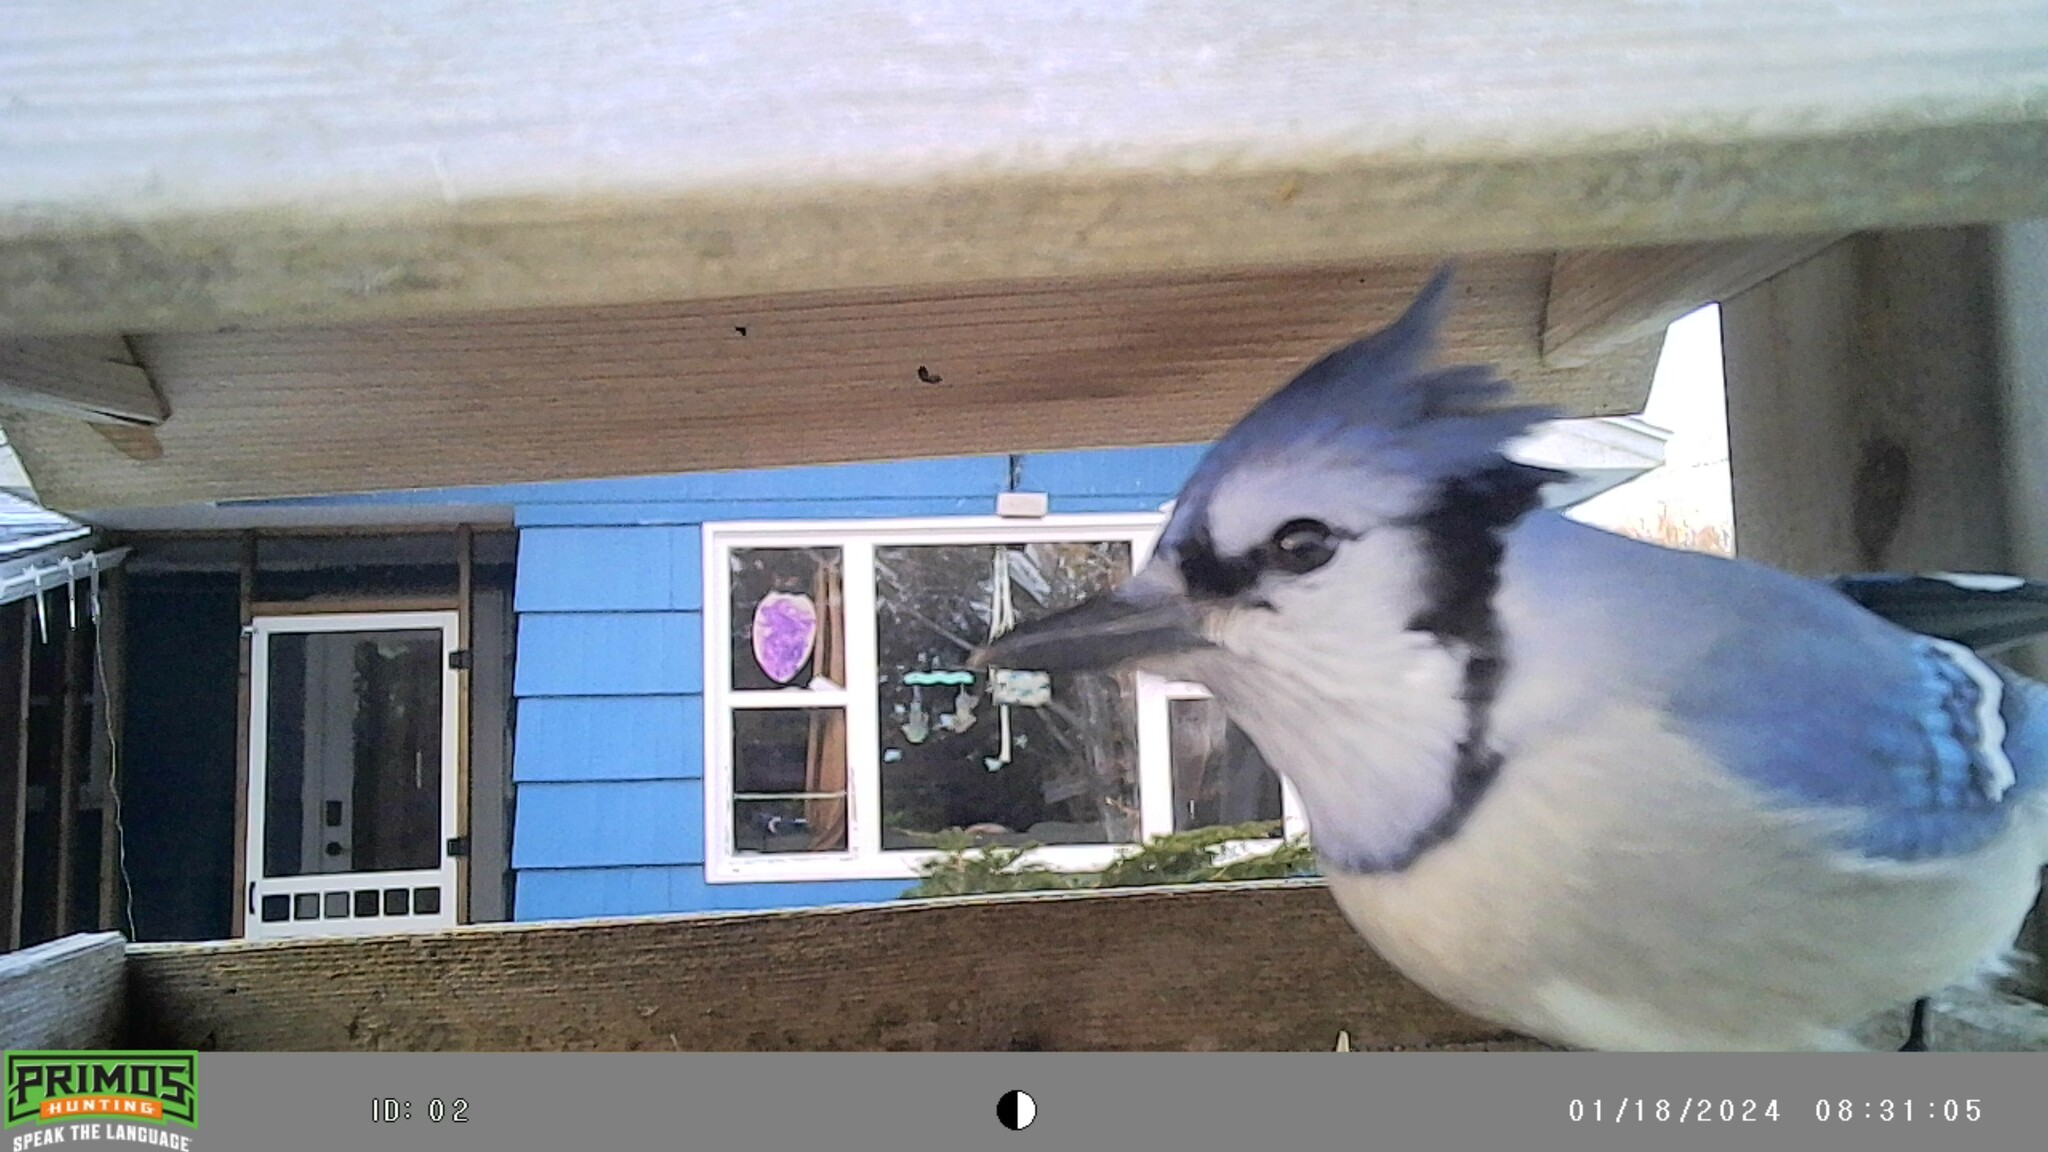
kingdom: Animalia
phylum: Chordata
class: Aves
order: Passeriformes
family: Corvidae
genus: Cyanocitta
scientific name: Cyanocitta cristata
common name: Blue jay
